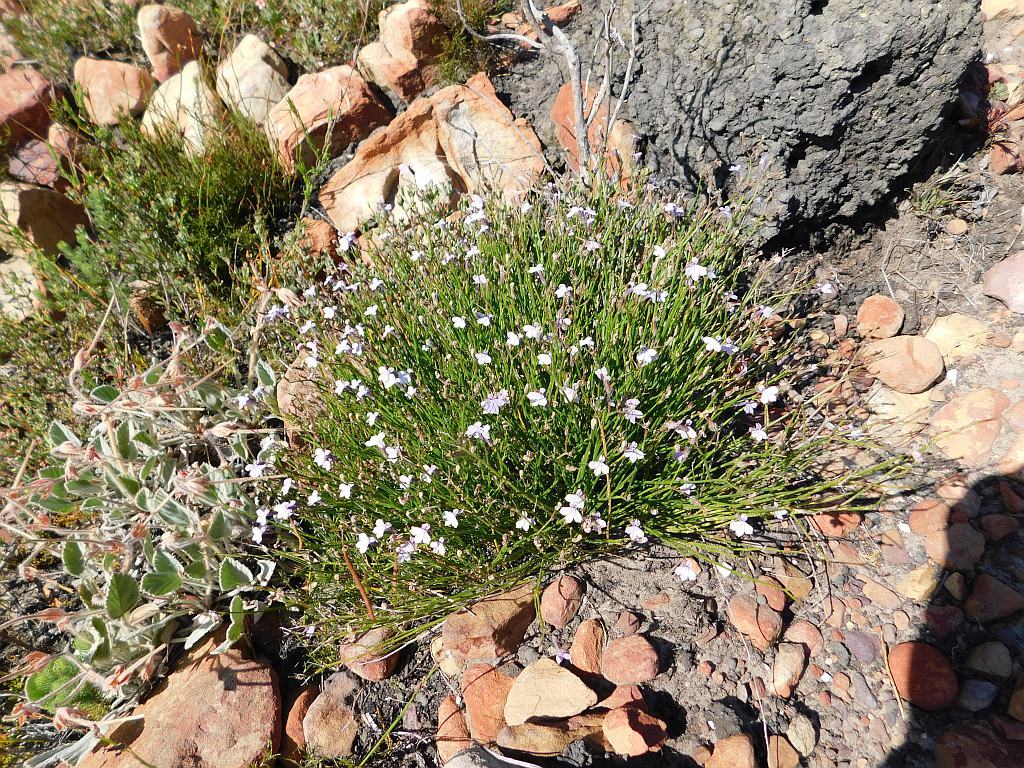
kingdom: Plantae
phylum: Tracheophyta
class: Magnoliopsida
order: Asterales
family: Campanulaceae
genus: Lobelia
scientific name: Lobelia linearis
